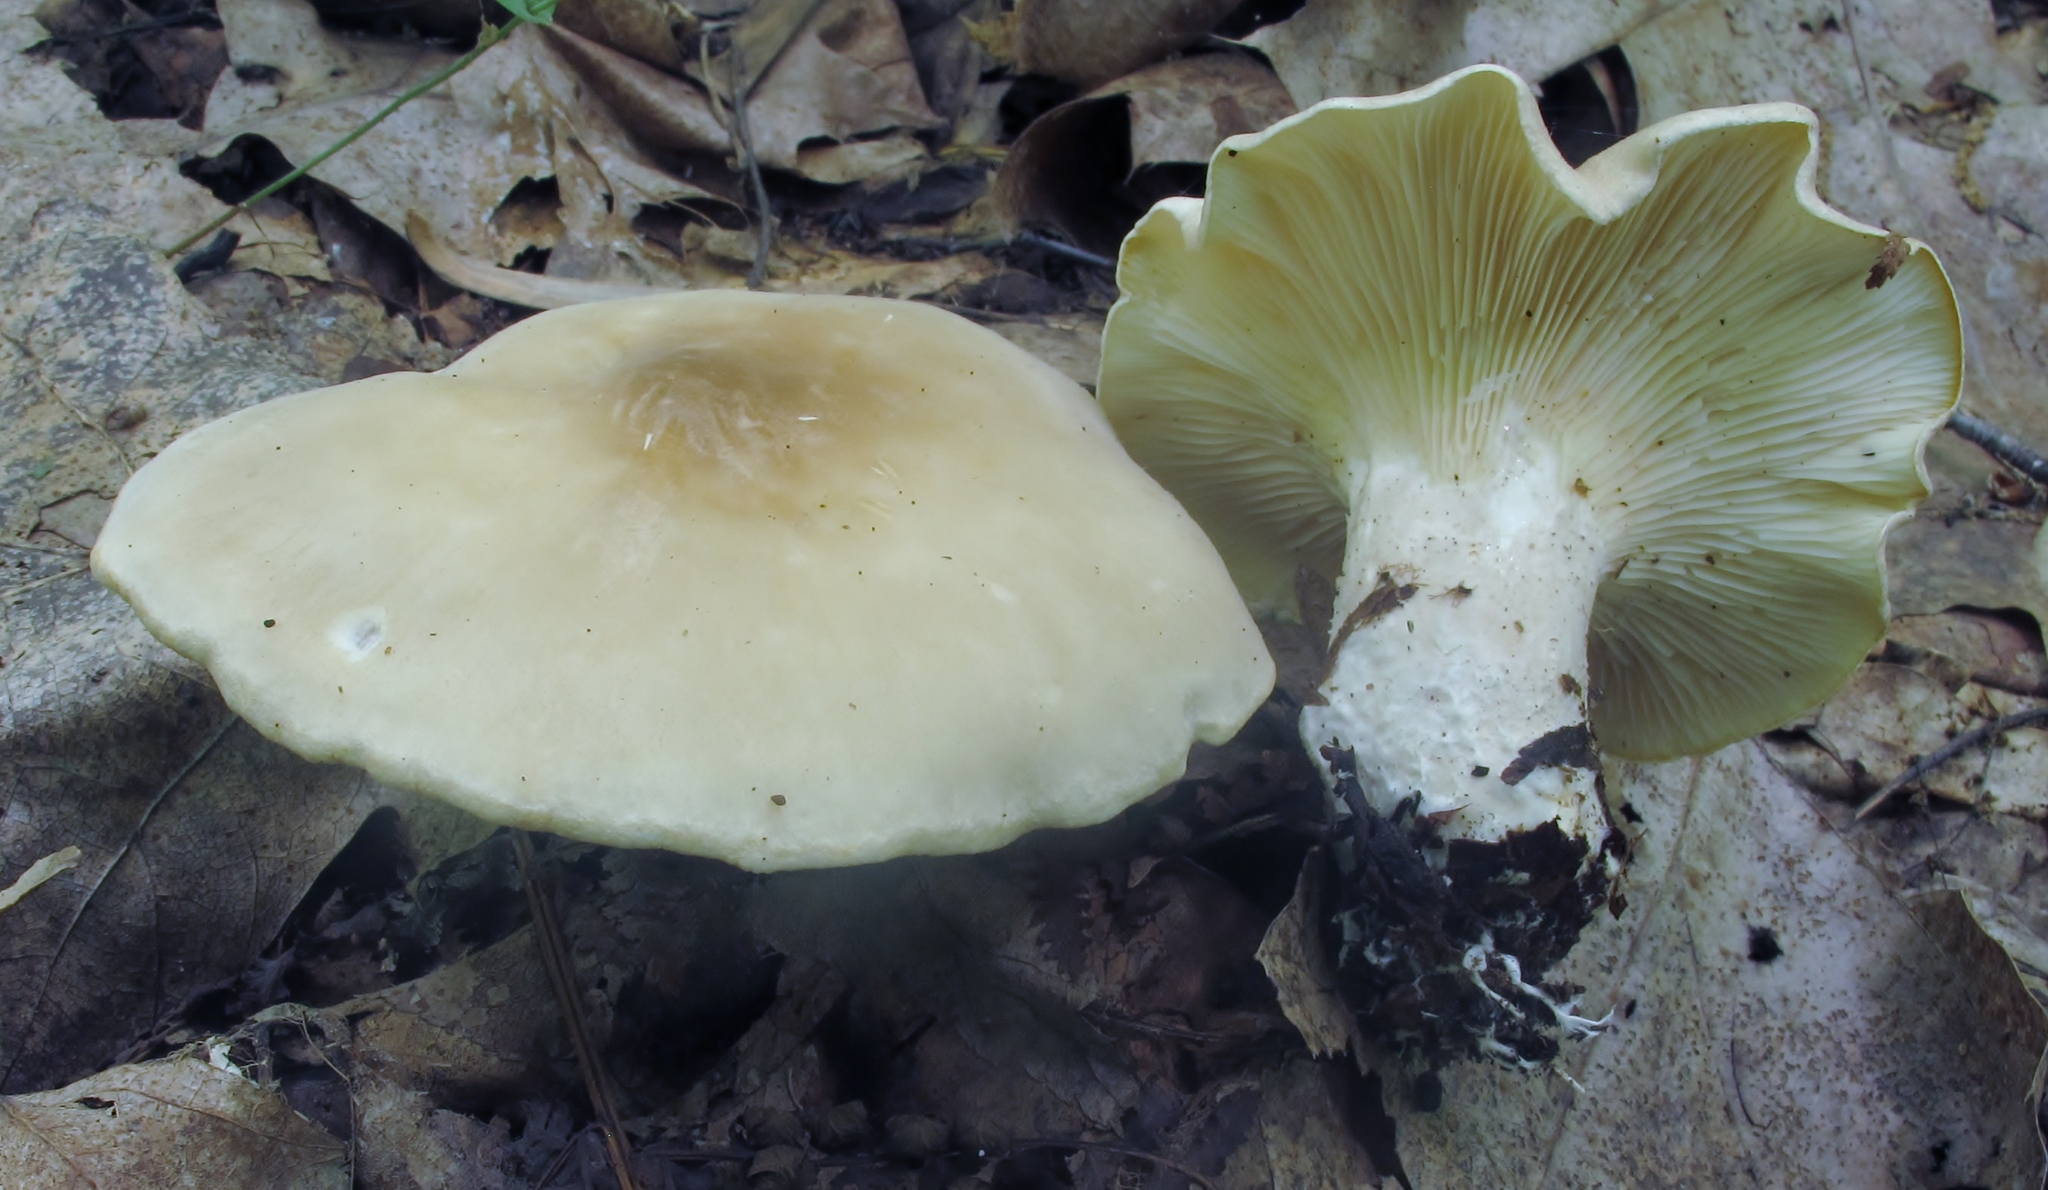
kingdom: Fungi
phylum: Basidiomycota
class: Agaricomycetes
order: Agaricales
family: Tricholomataceae
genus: Leucopaxillus
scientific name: Leucopaxillus albissimus
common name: Large white leucopax
